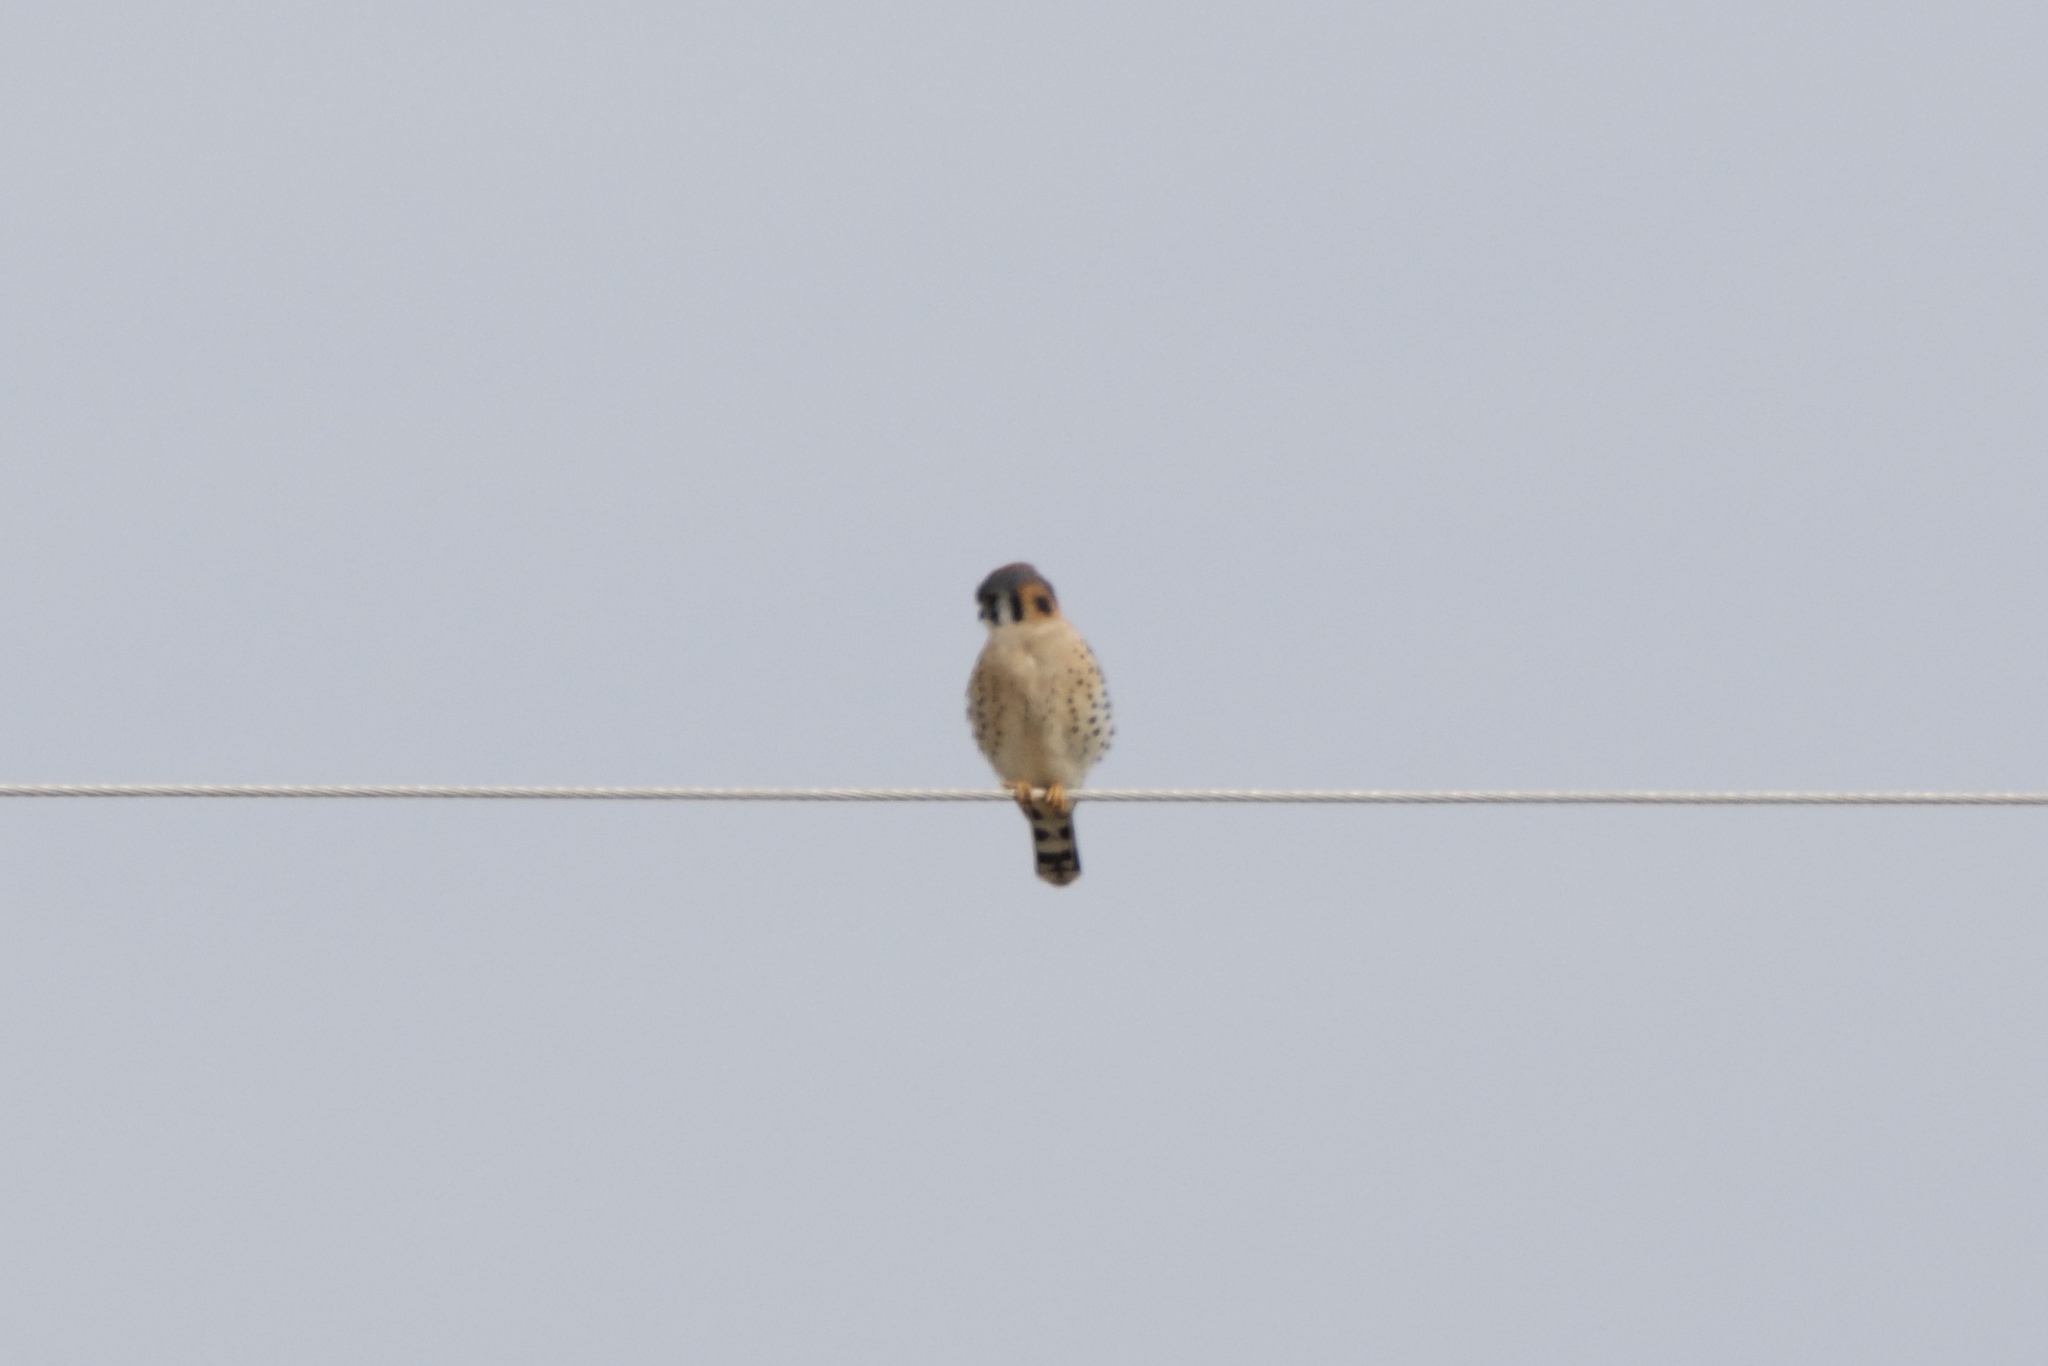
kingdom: Animalia
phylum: Chordata
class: Aves
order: Falconiformes
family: Falconidae
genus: Falco
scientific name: Falco sparverius
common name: American kestrel
